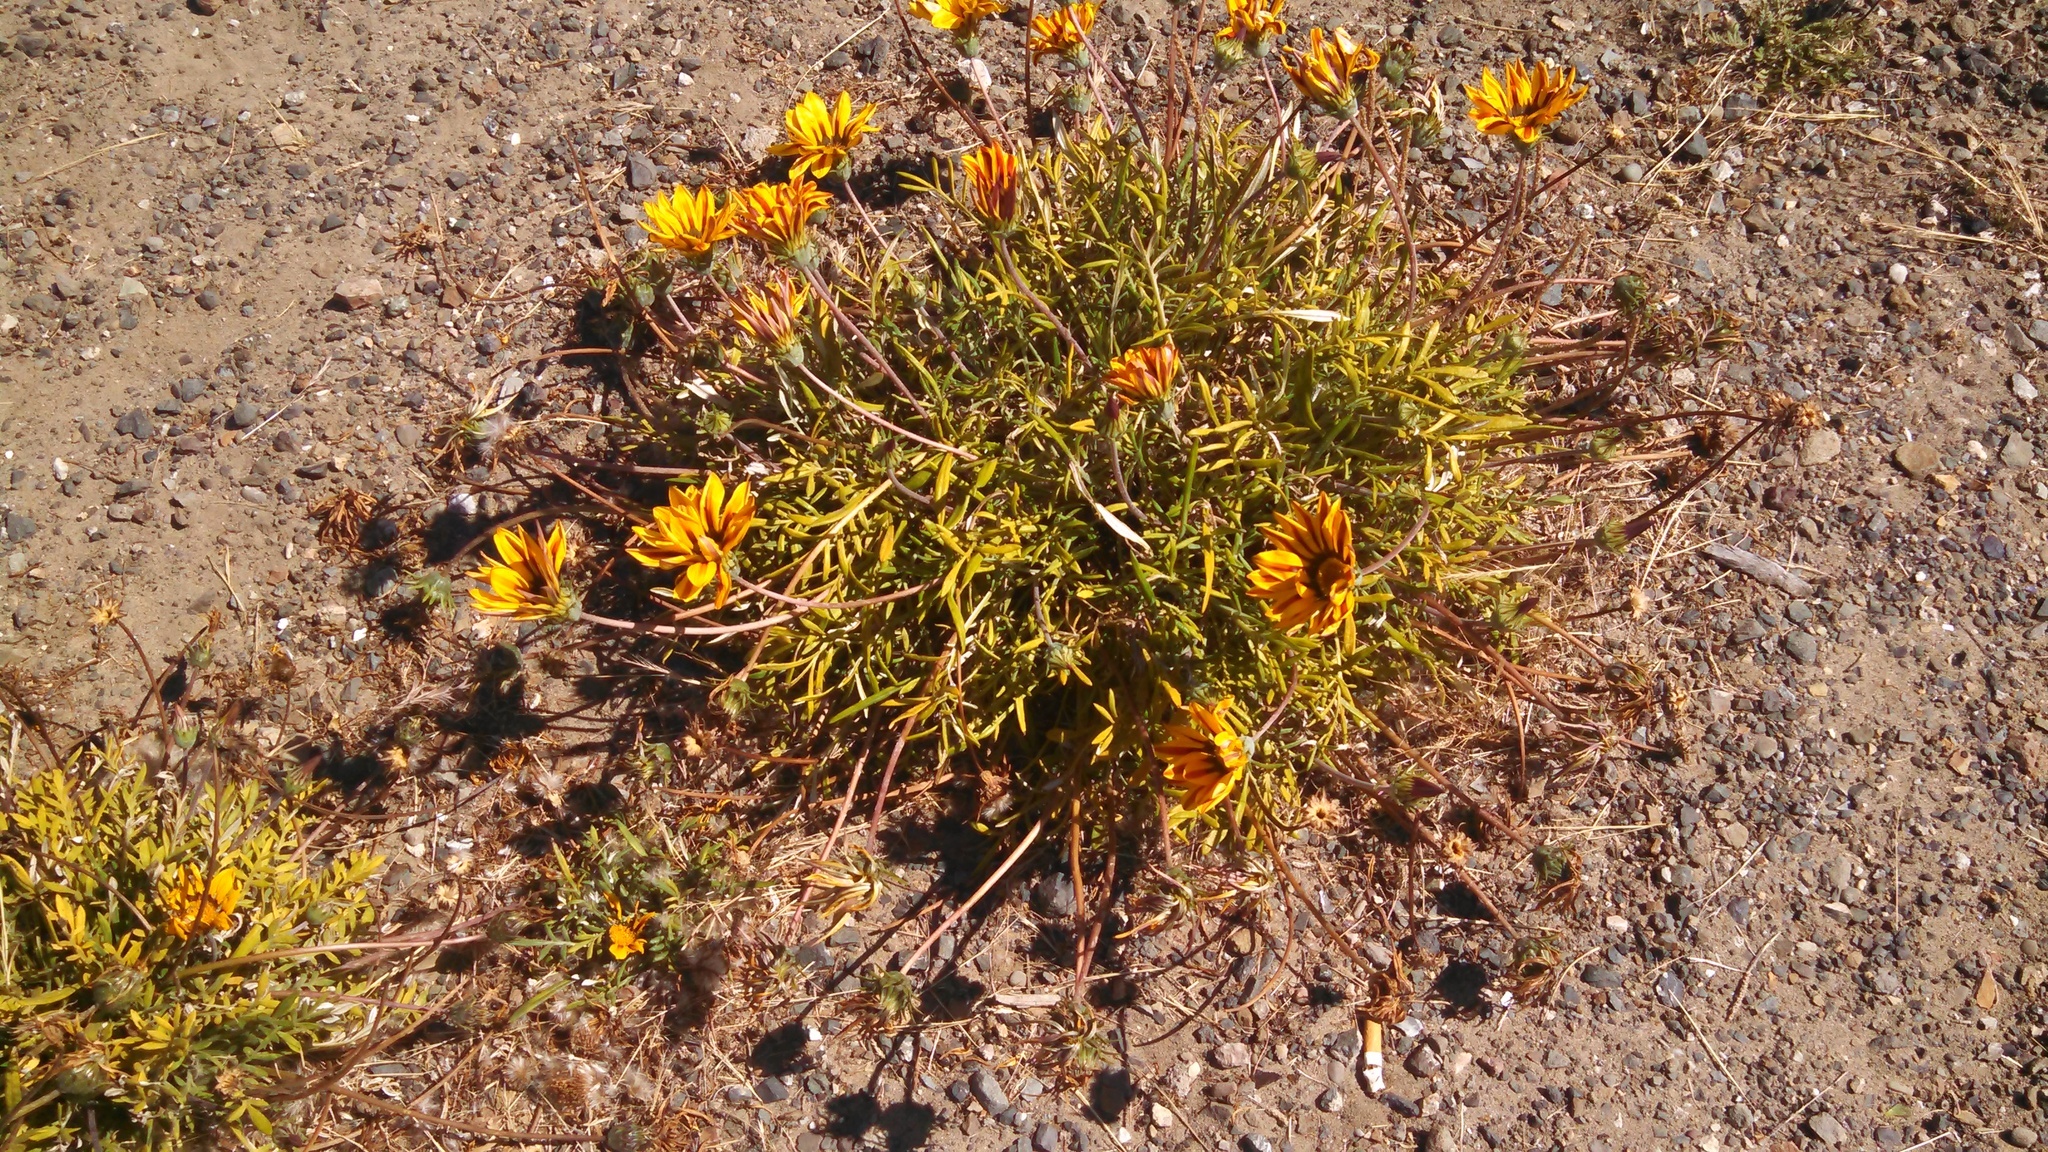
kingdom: Plantae
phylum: Tracheophyta
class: Magnoliopsida
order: Asterales
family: Asteraceae
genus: Gazania
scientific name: Gazania linearis
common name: Treasureflower
